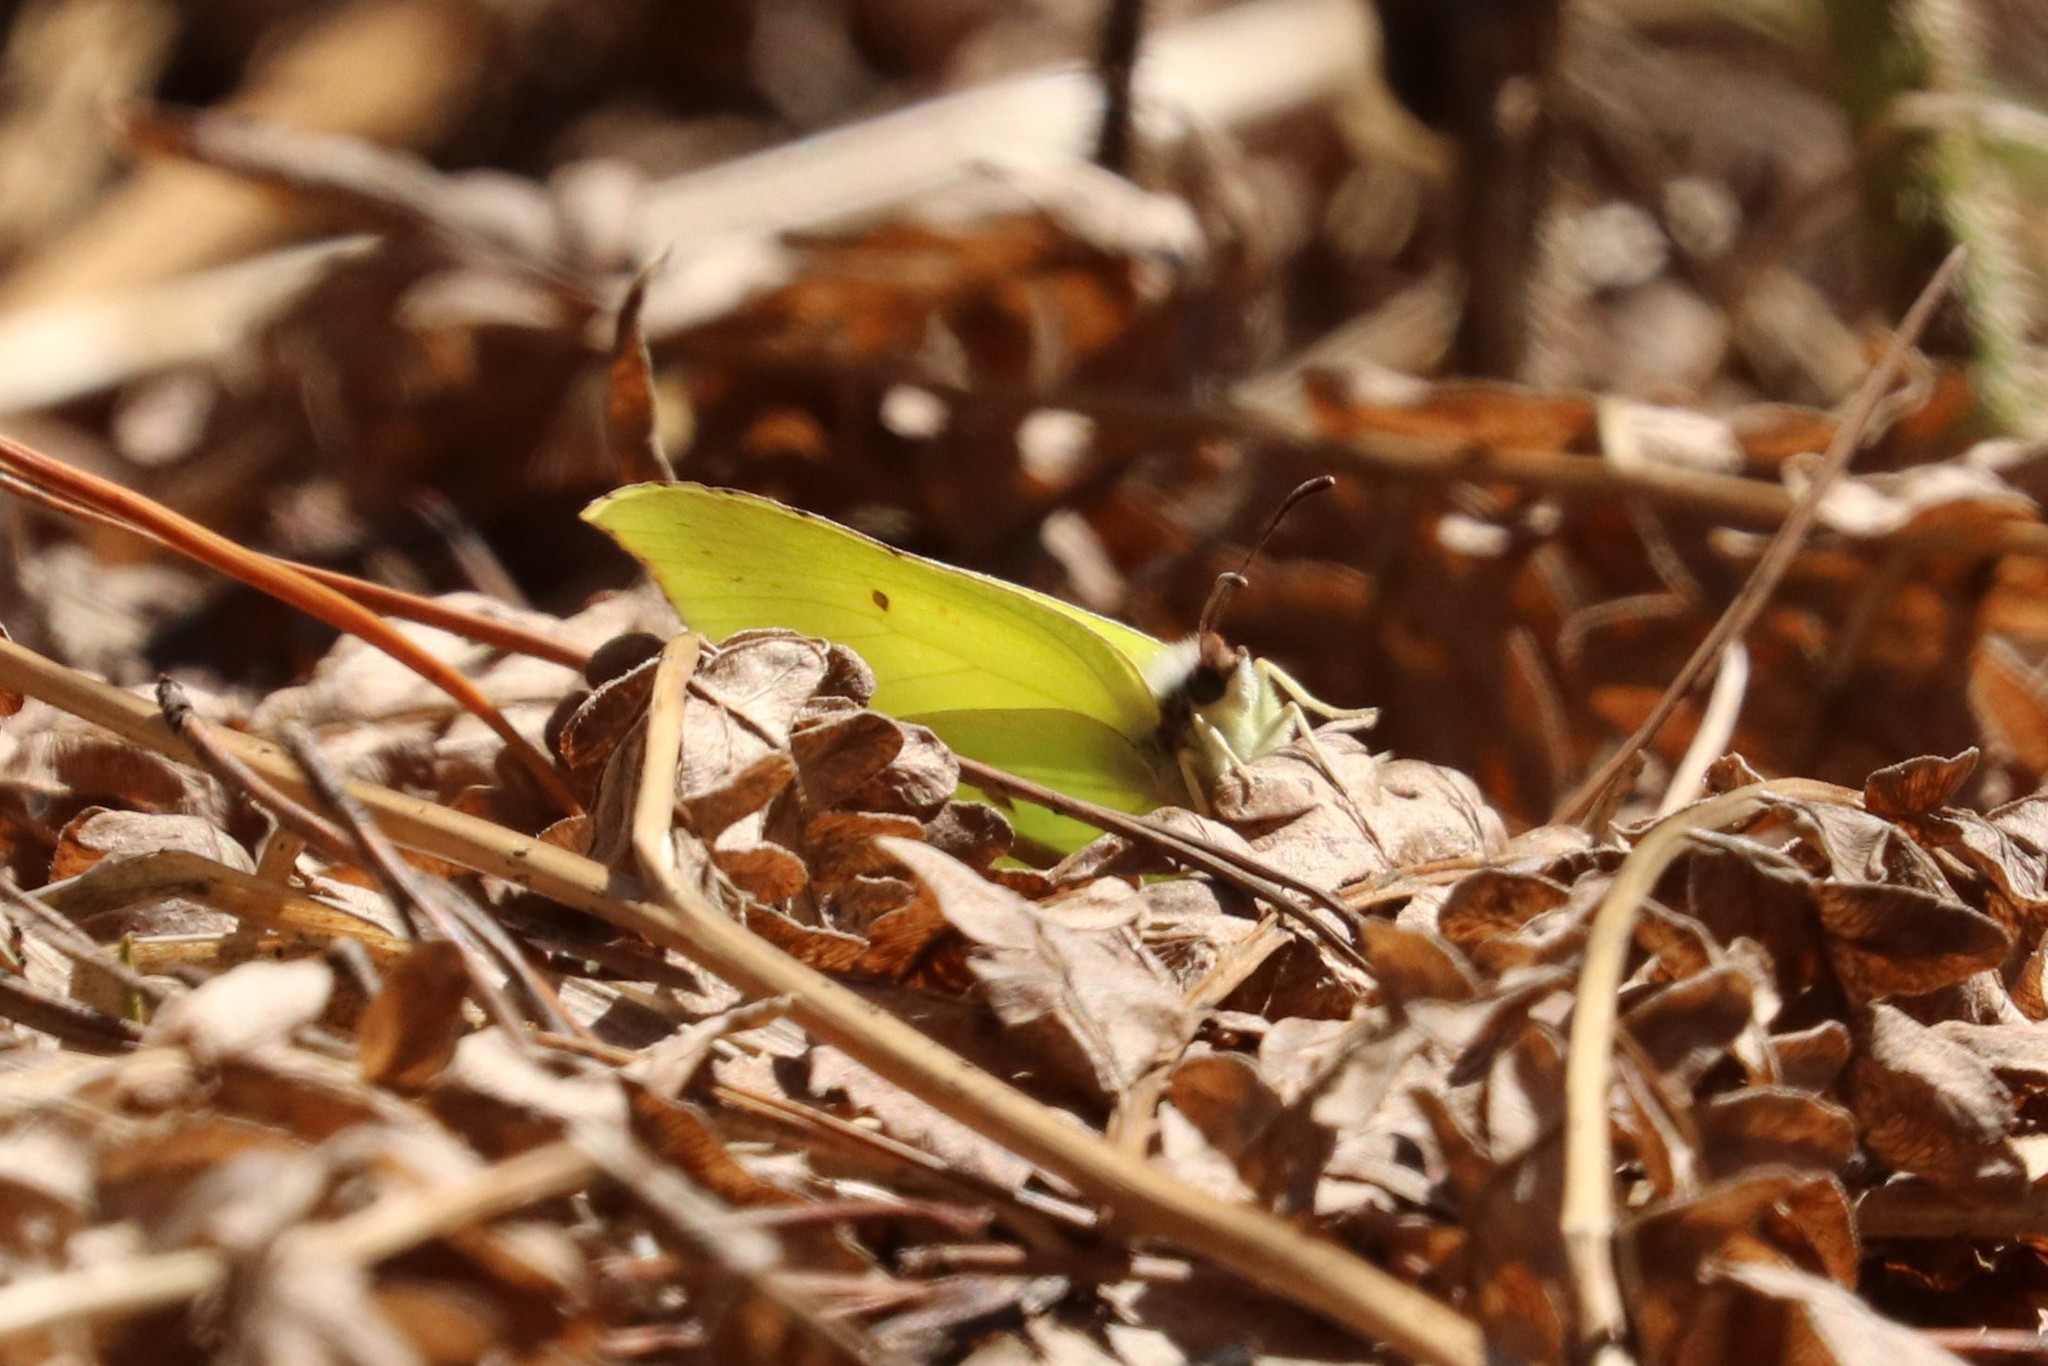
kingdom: Animalia
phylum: Arthropoda
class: Insecta
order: Lepidoptera
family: Pieridae
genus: Gonepteryx
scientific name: Gonepteryx rhamni
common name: Brimstone
